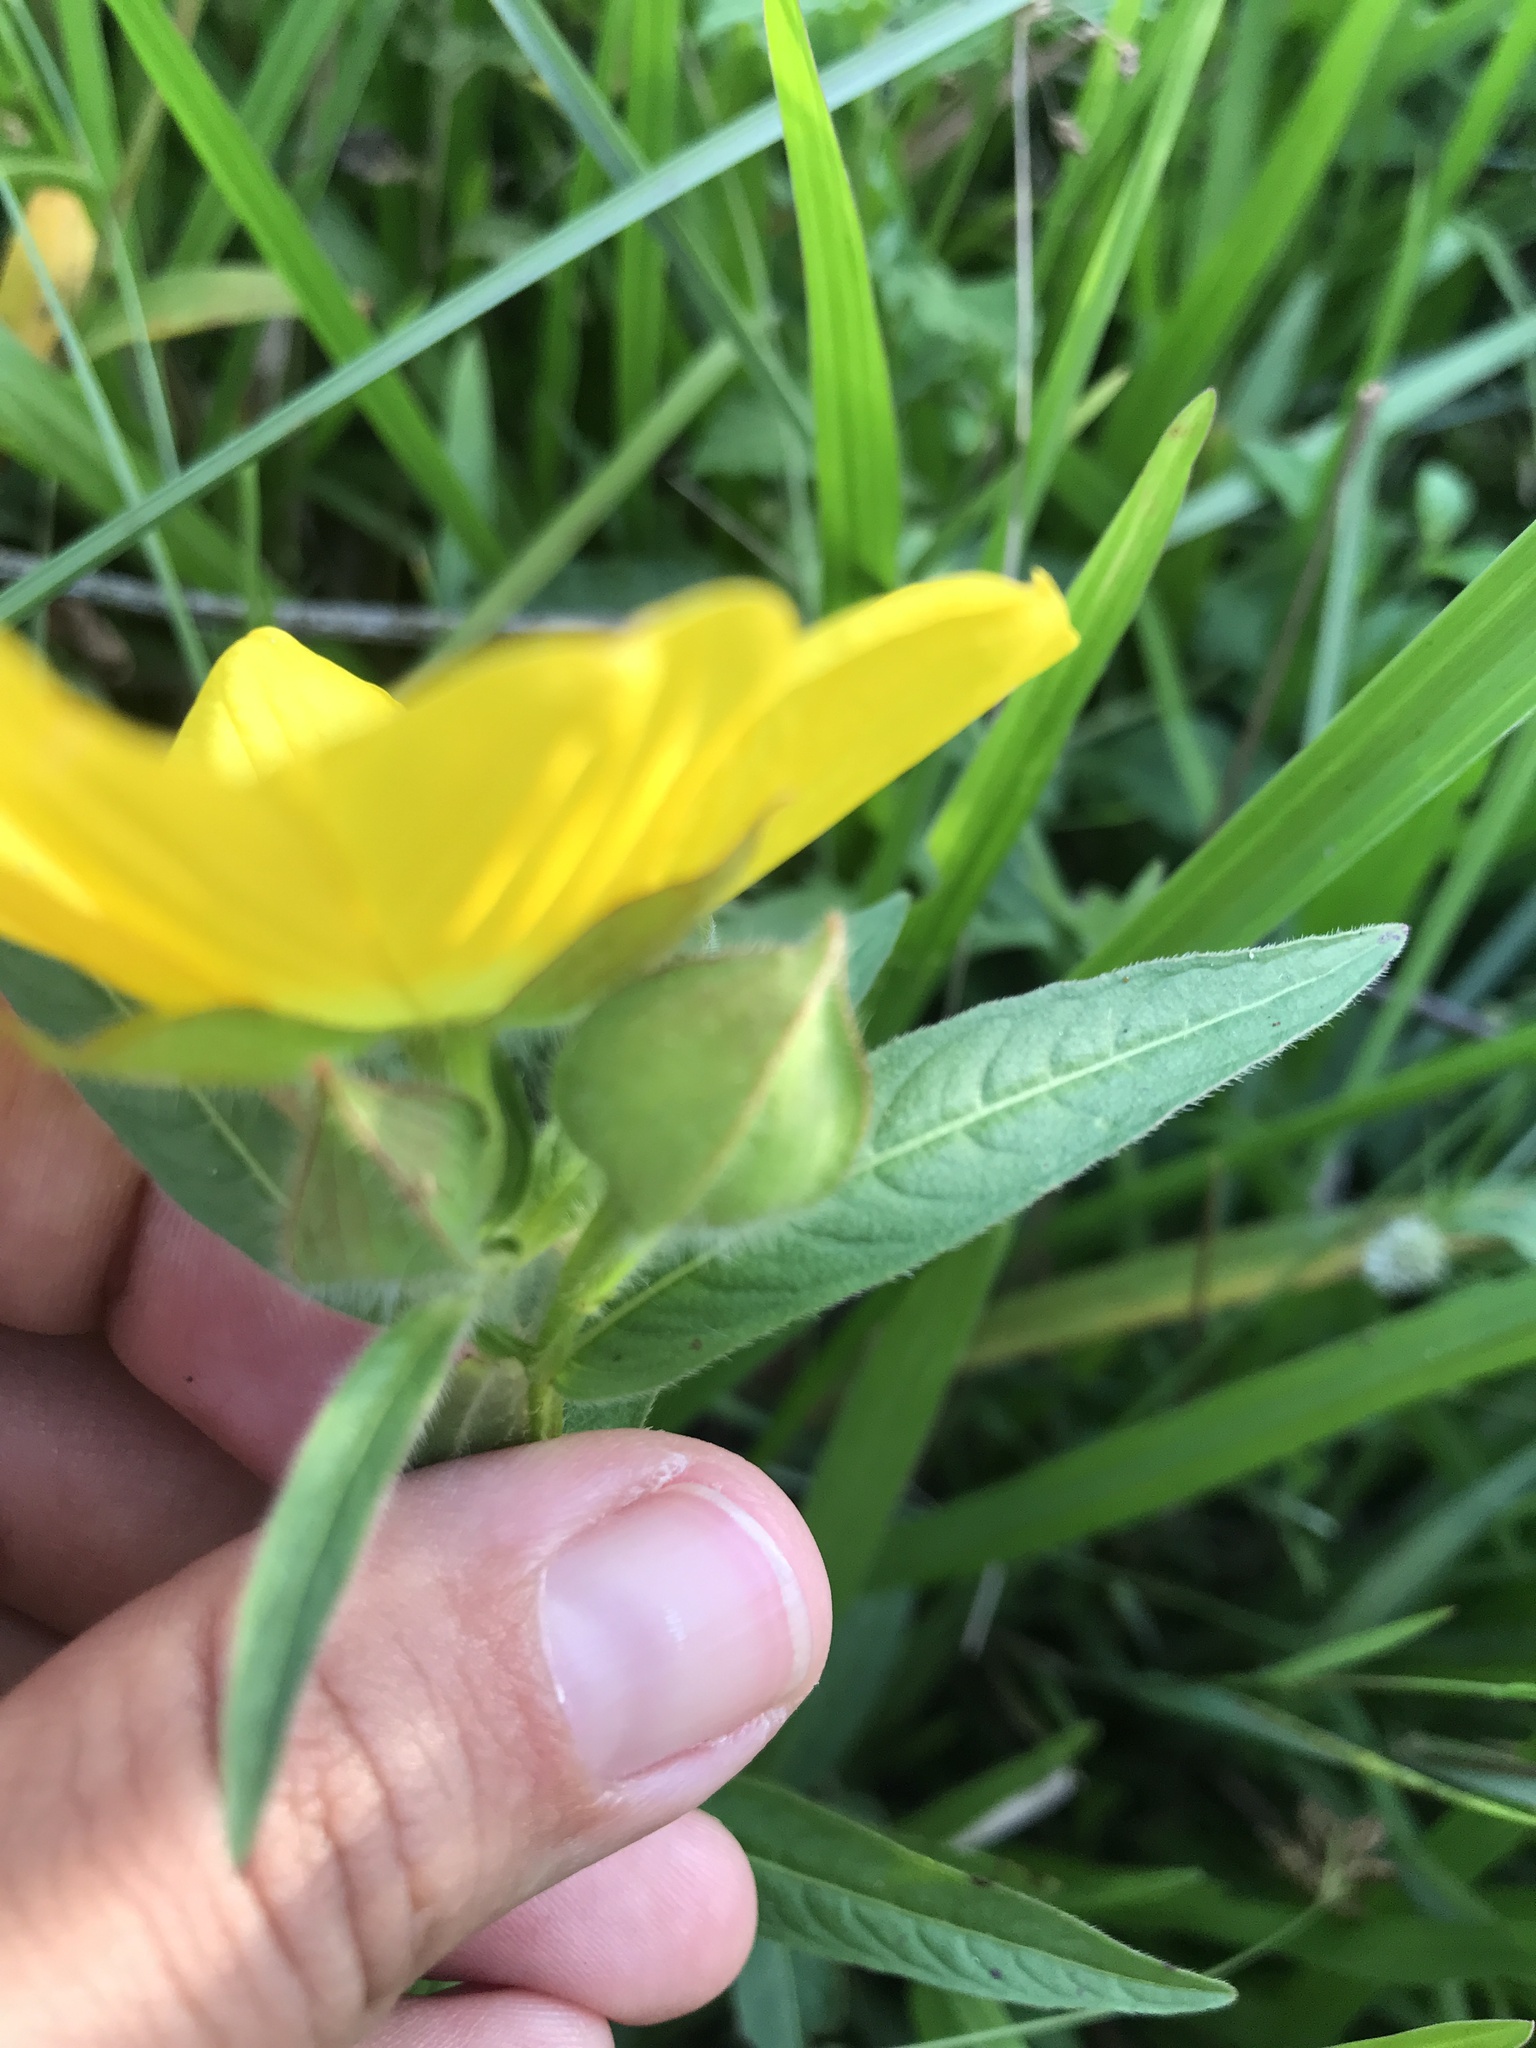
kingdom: Plantae
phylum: Tracheophyta
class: Magnoliopsida
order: Myrtales
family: Onagraceae
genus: Ludwigia
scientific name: Ludwigia bonariensis
